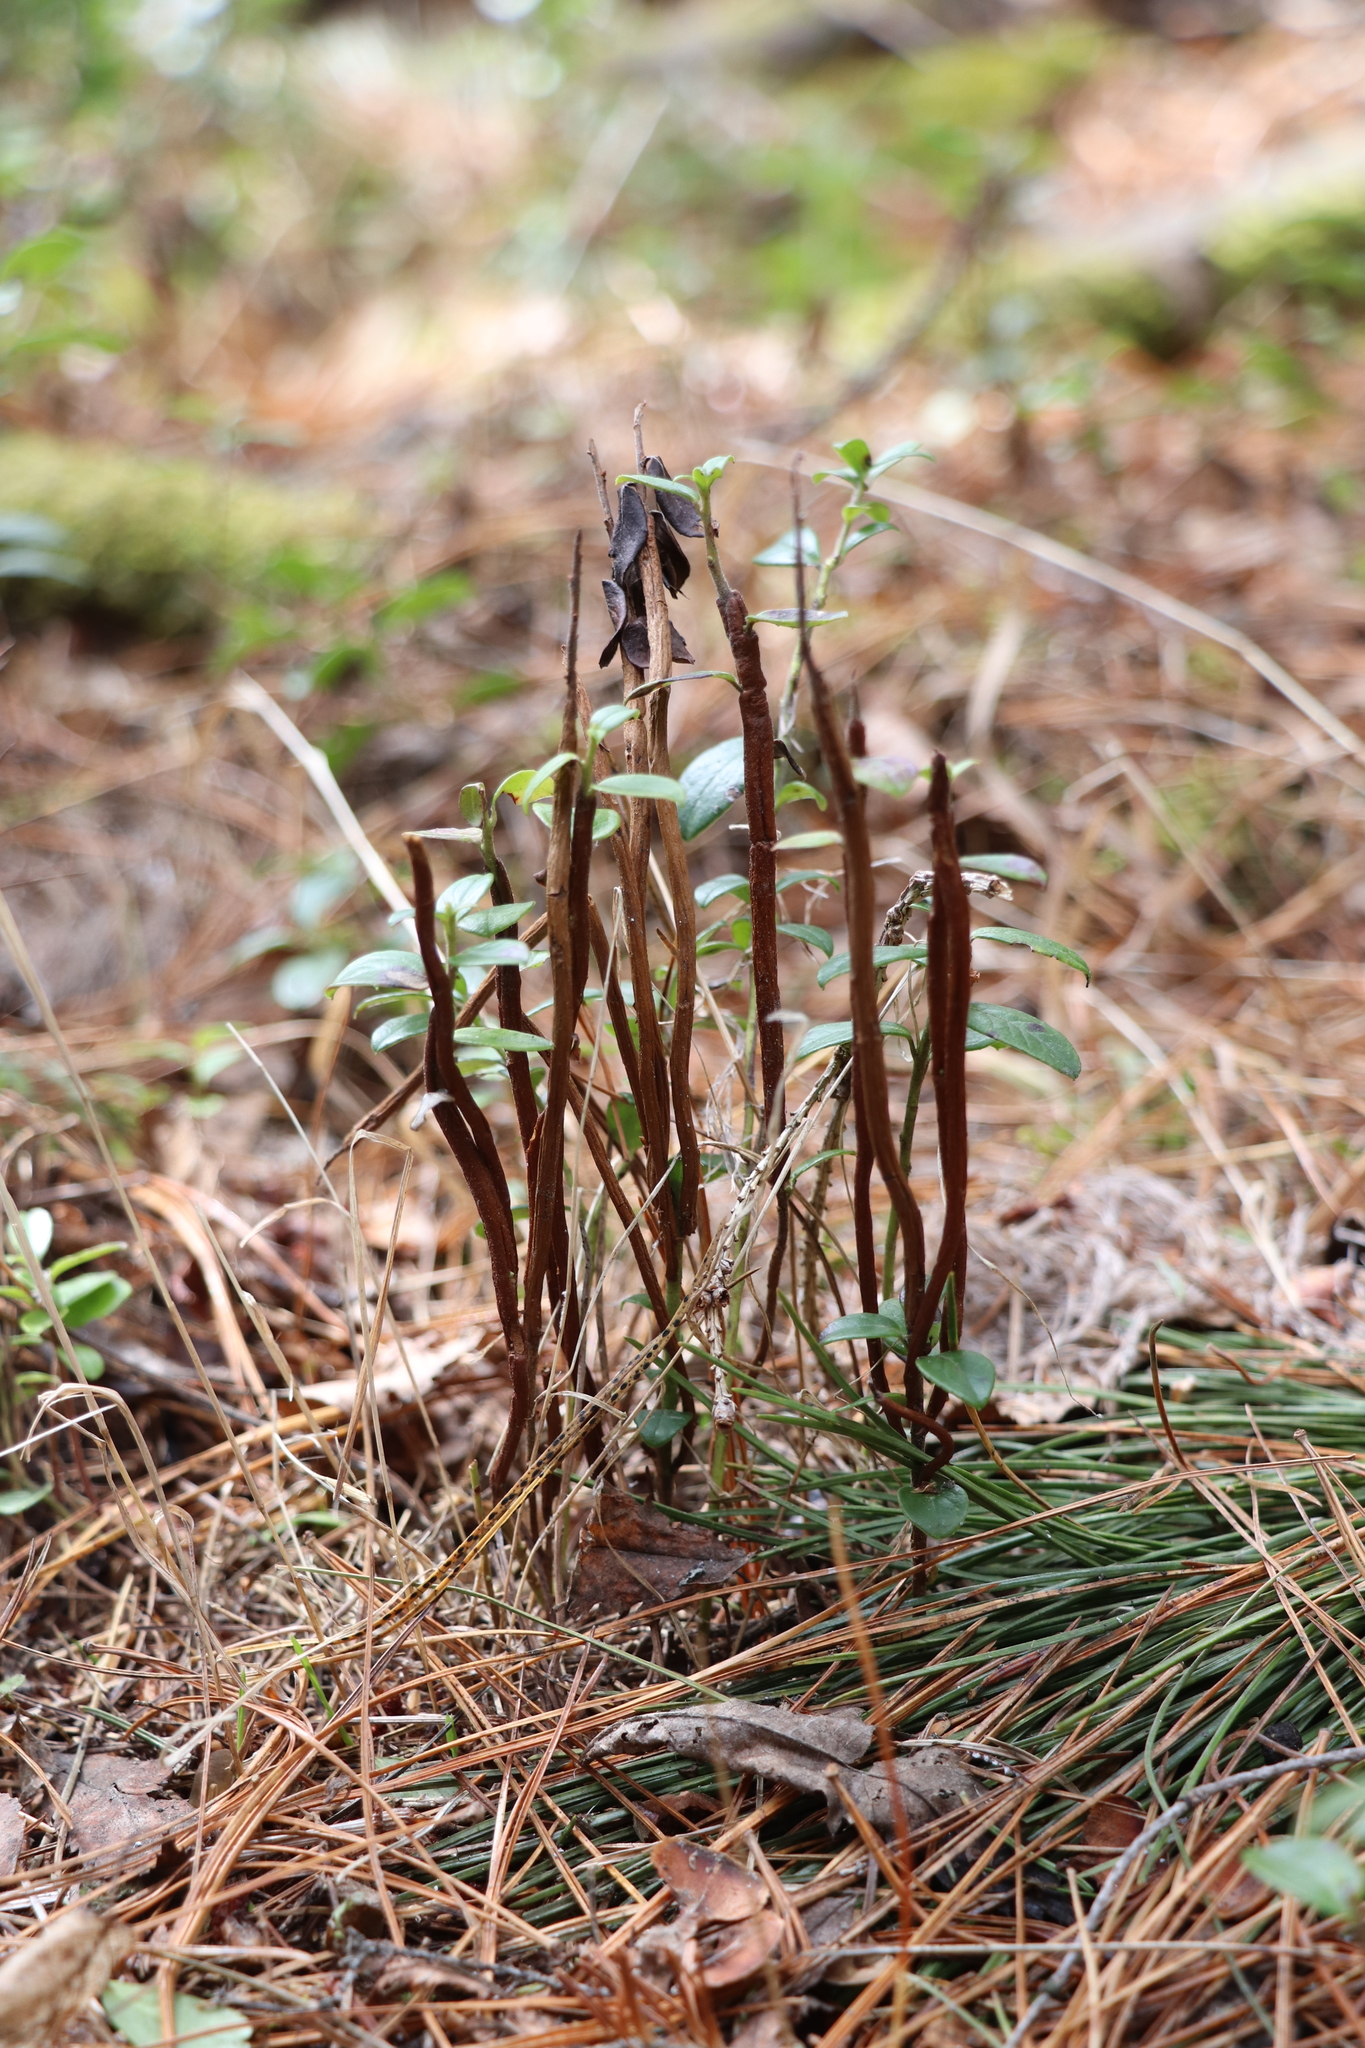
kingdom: Fungi
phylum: Basidiomycota
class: Pucciniomycetes
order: Pucciniales
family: Pucciniastraceae
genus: Calyptospora
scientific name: Calyptospora columnaris
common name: Huckleberry broom rust fungus
